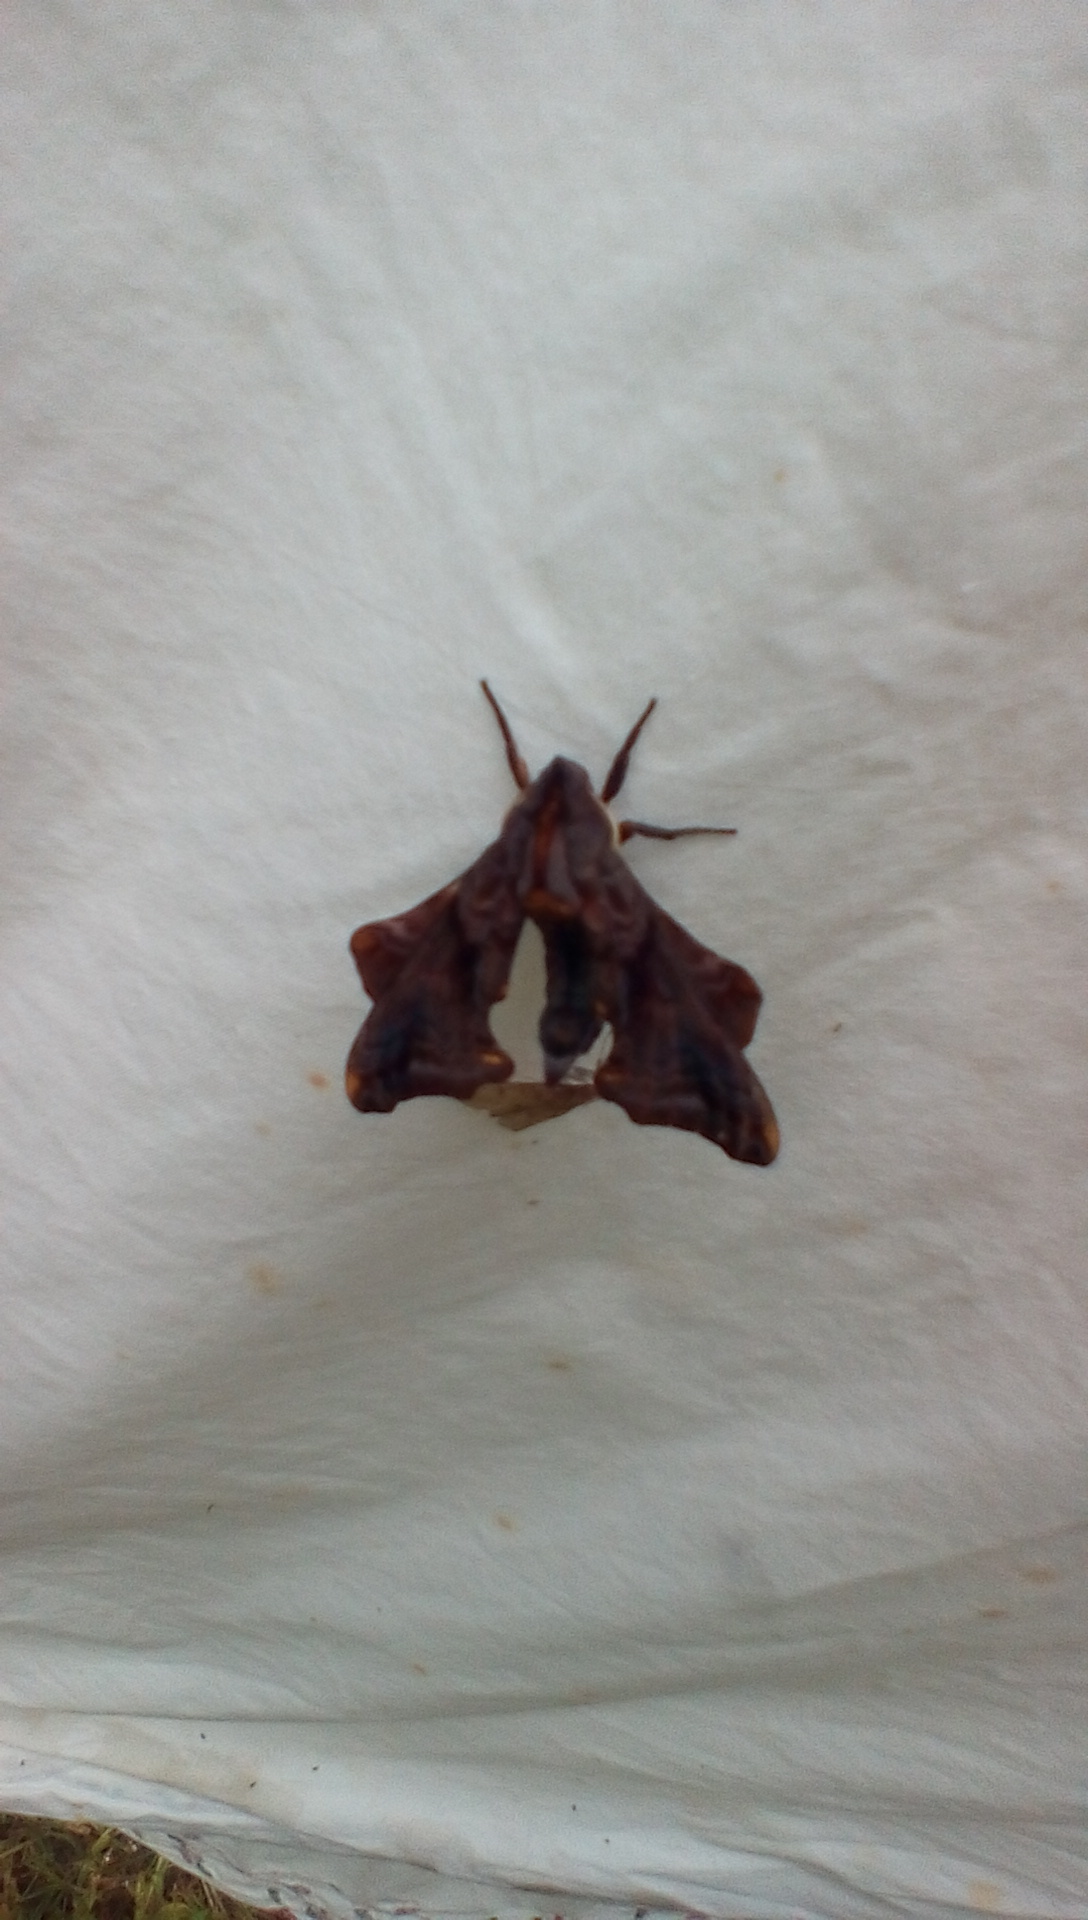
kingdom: Animalia
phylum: Arthropoda
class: Insecta
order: Lepidoptera
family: Sphingidae
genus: Paonias
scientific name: Paonias myops
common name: Small-eyed sphinx
